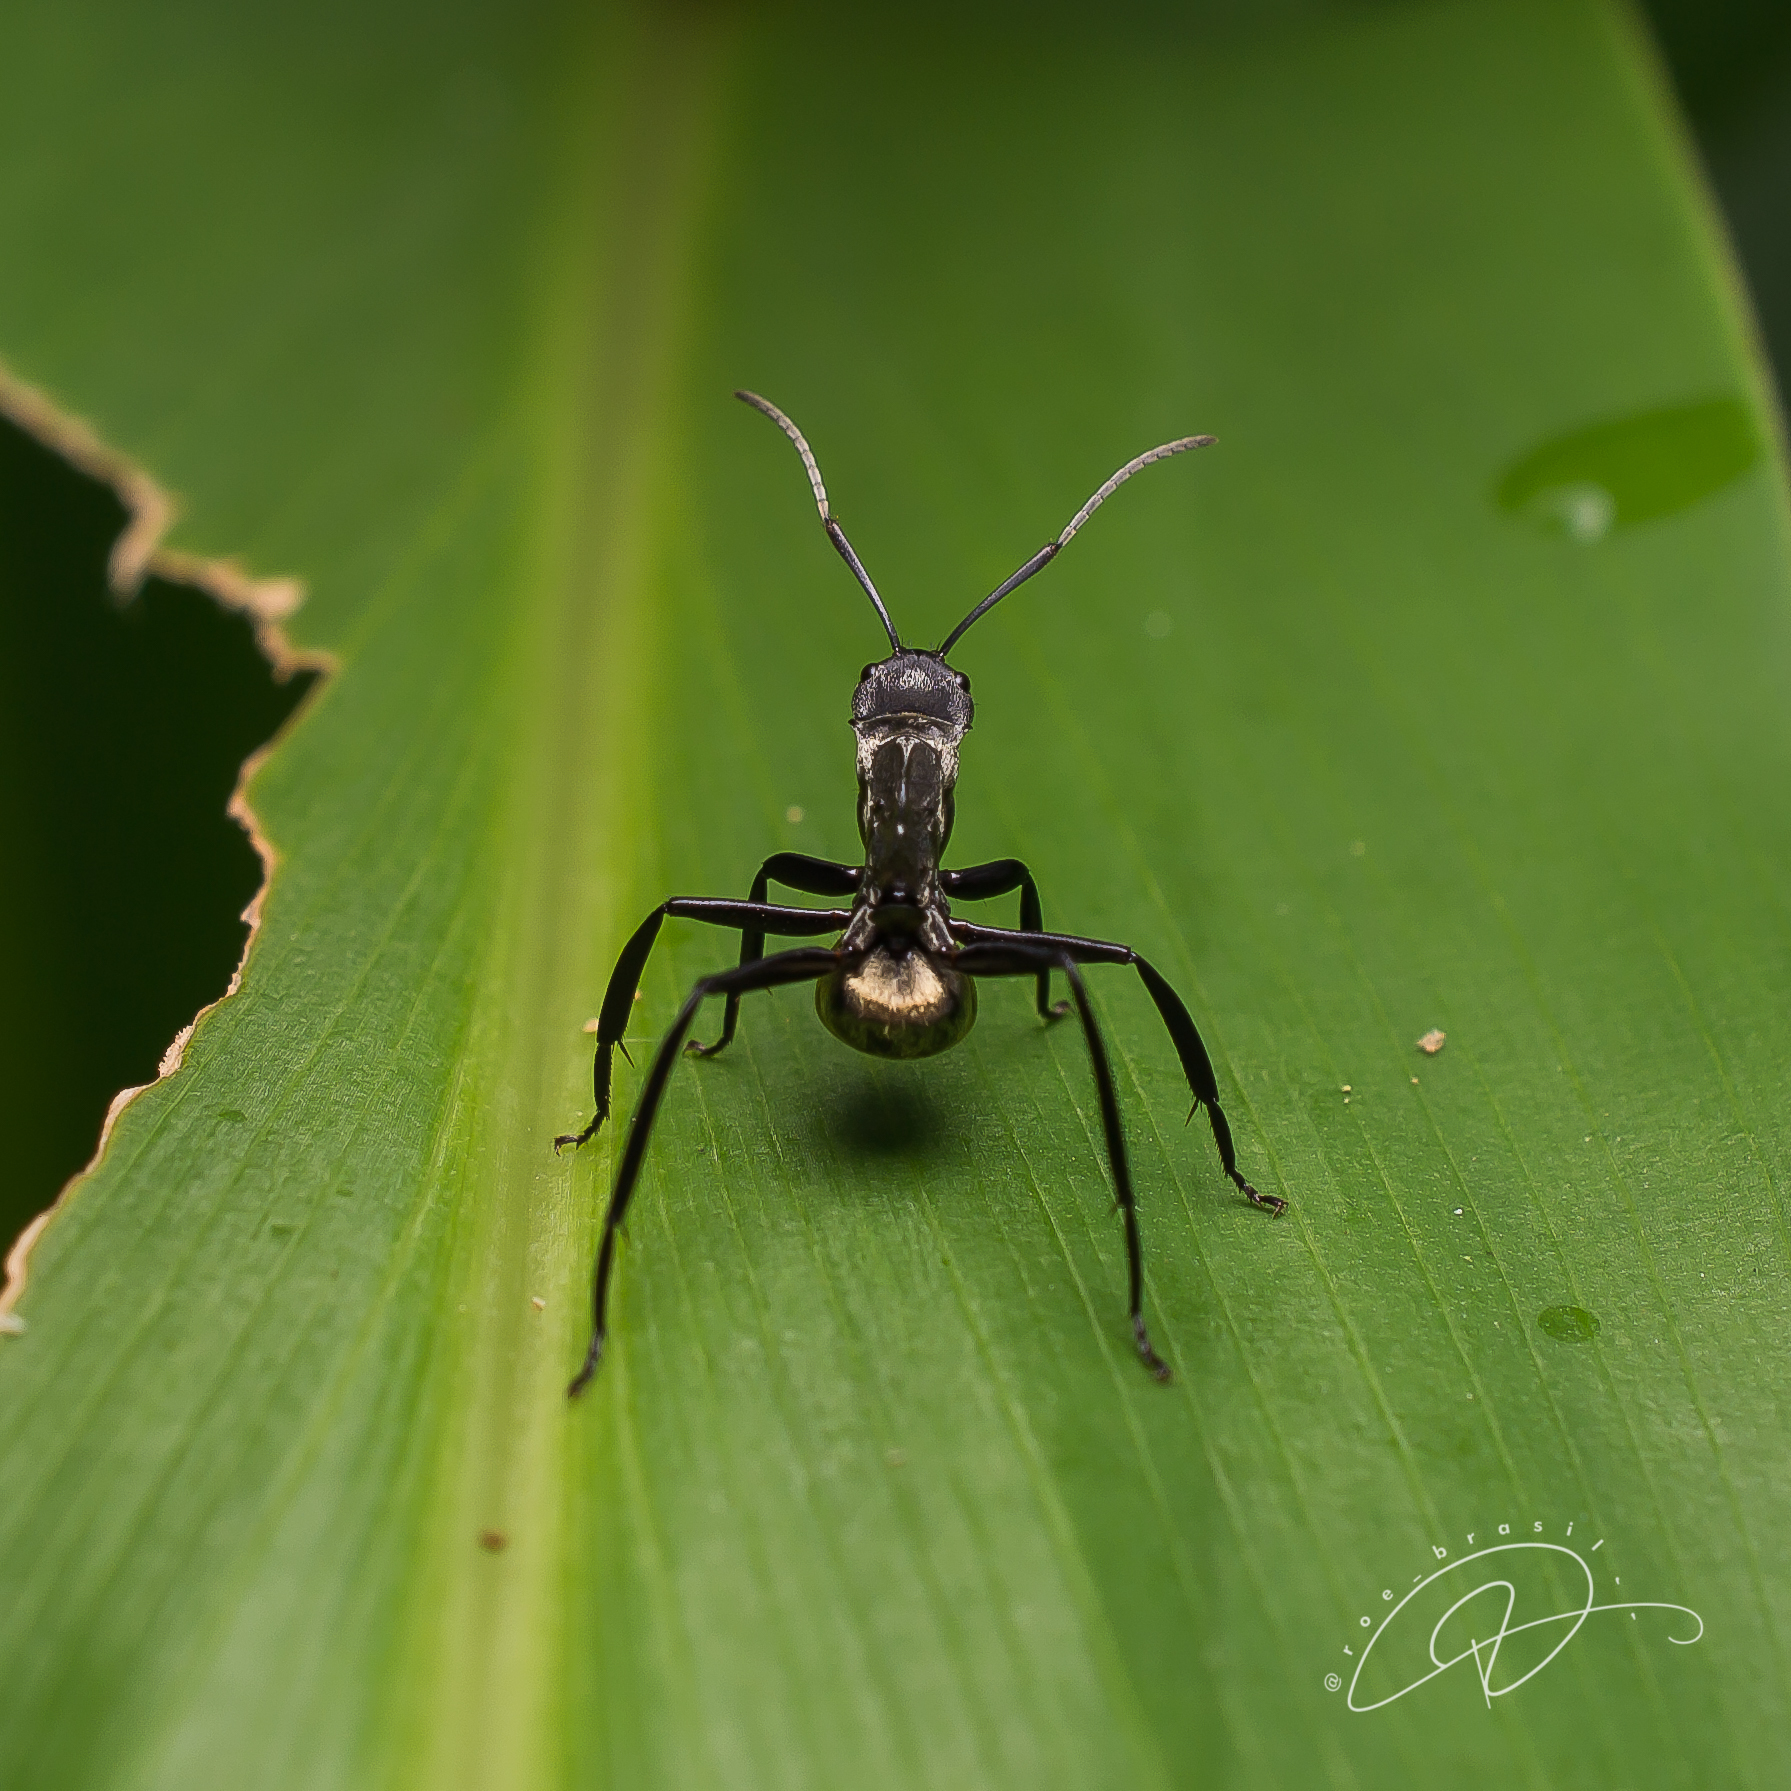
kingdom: Animalia
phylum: Arthropoda
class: Insecta
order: Hymenoptera
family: Formicidae
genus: Camponotus
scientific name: Camponotus sericeiventris
